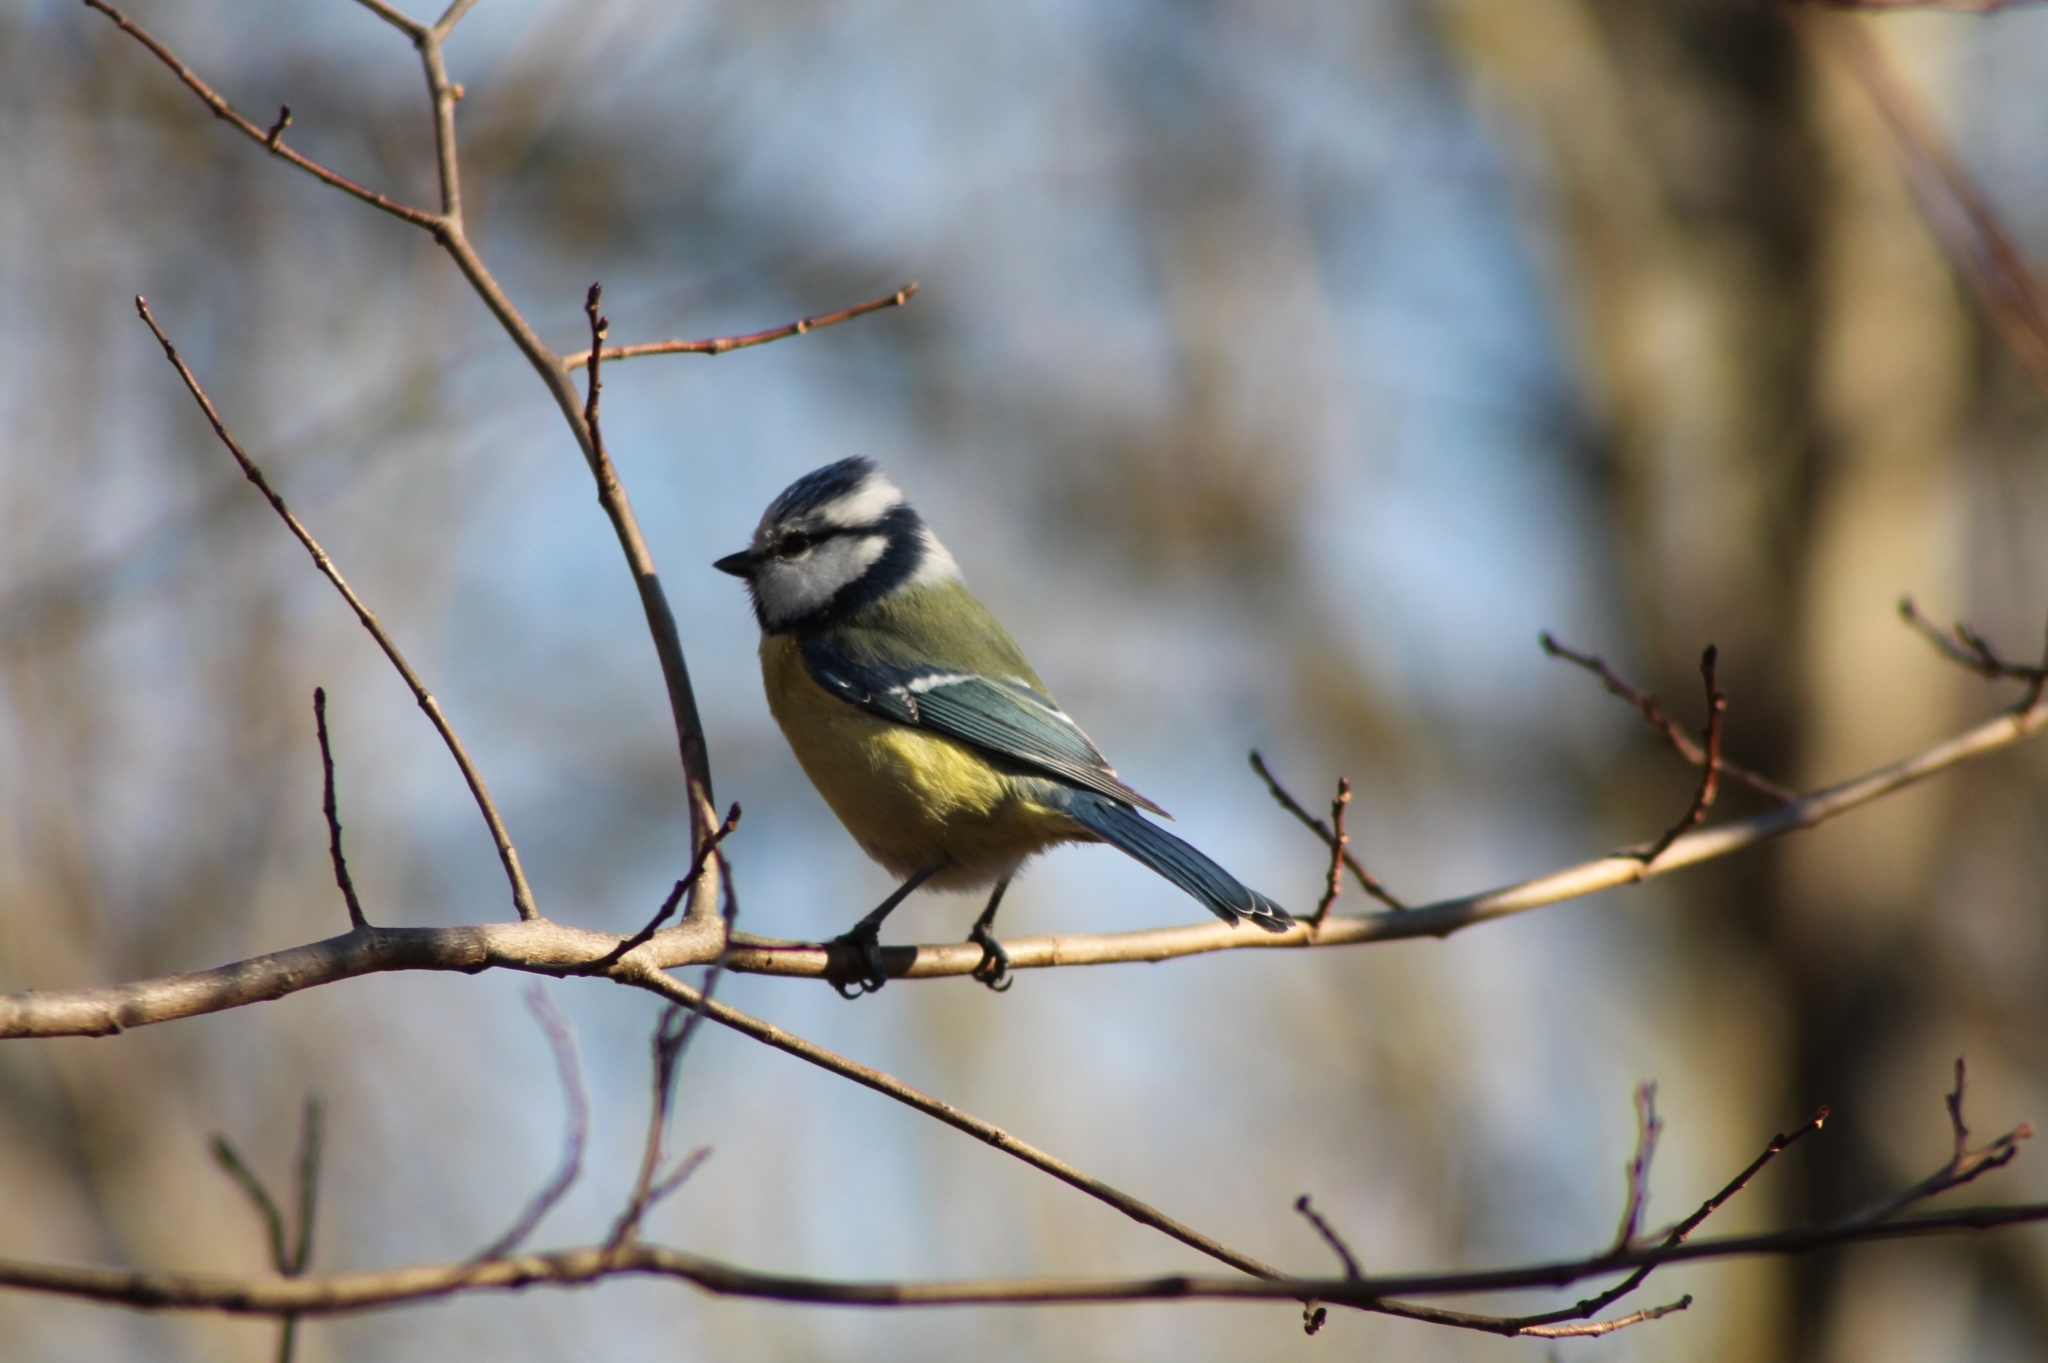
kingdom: Animalia
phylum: Chordata
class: Aves
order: Passeriformes
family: Paridae
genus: Cyanistes
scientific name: Cyanistes caeruleus
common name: Eurasian blue tit
